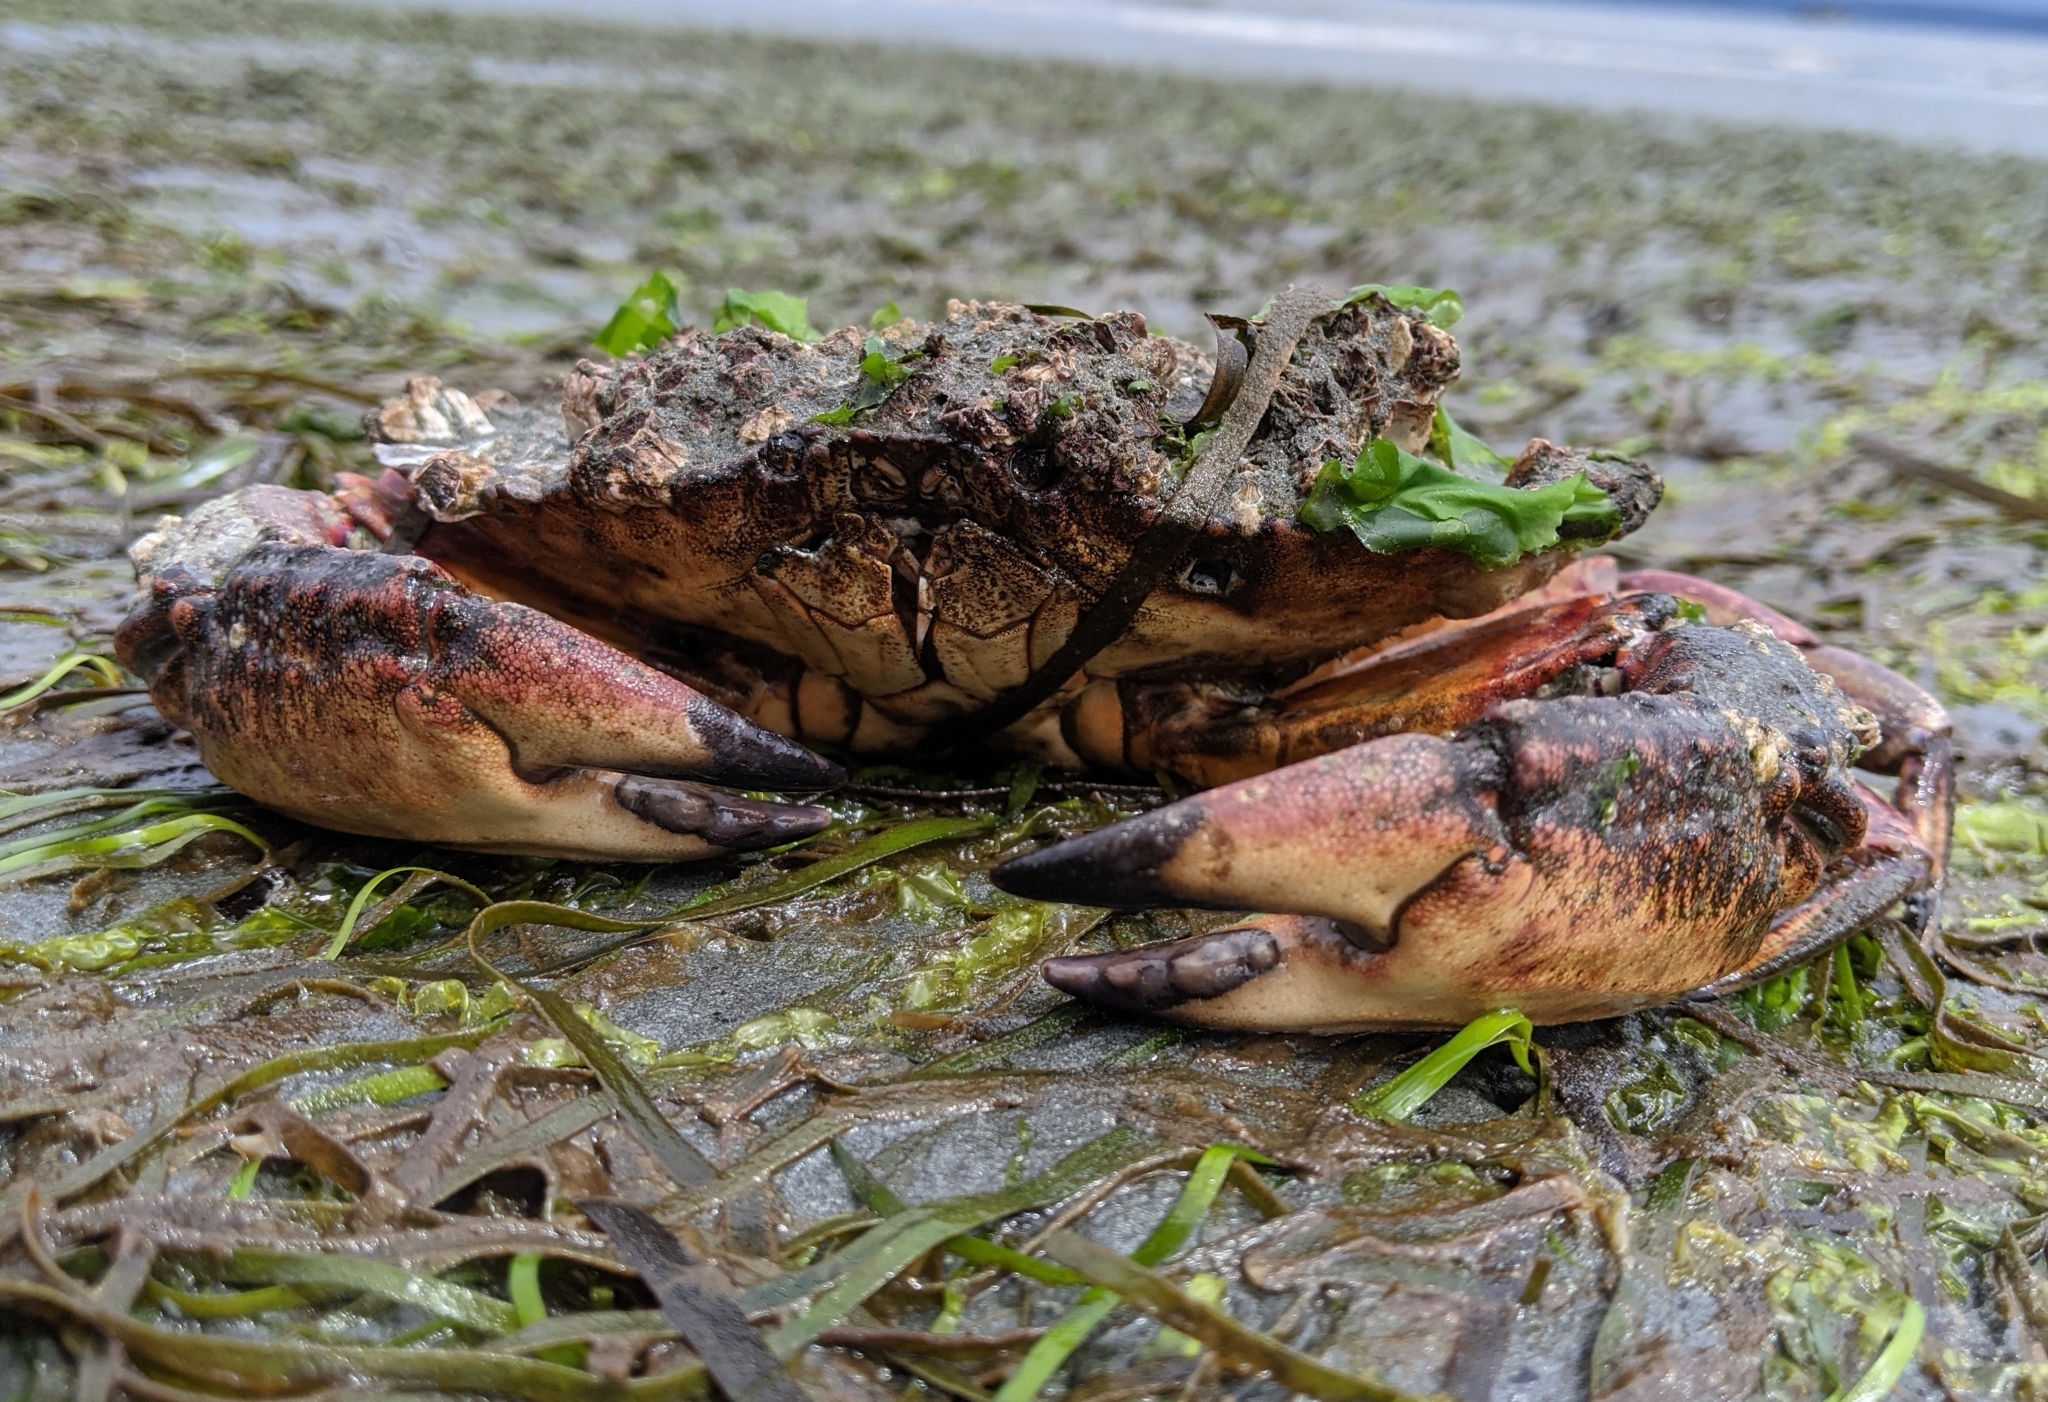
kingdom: Animalia
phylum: Arthropoda
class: Malacostraca
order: Decapoda
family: Cancridae
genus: Cancer
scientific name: Cancer productus
